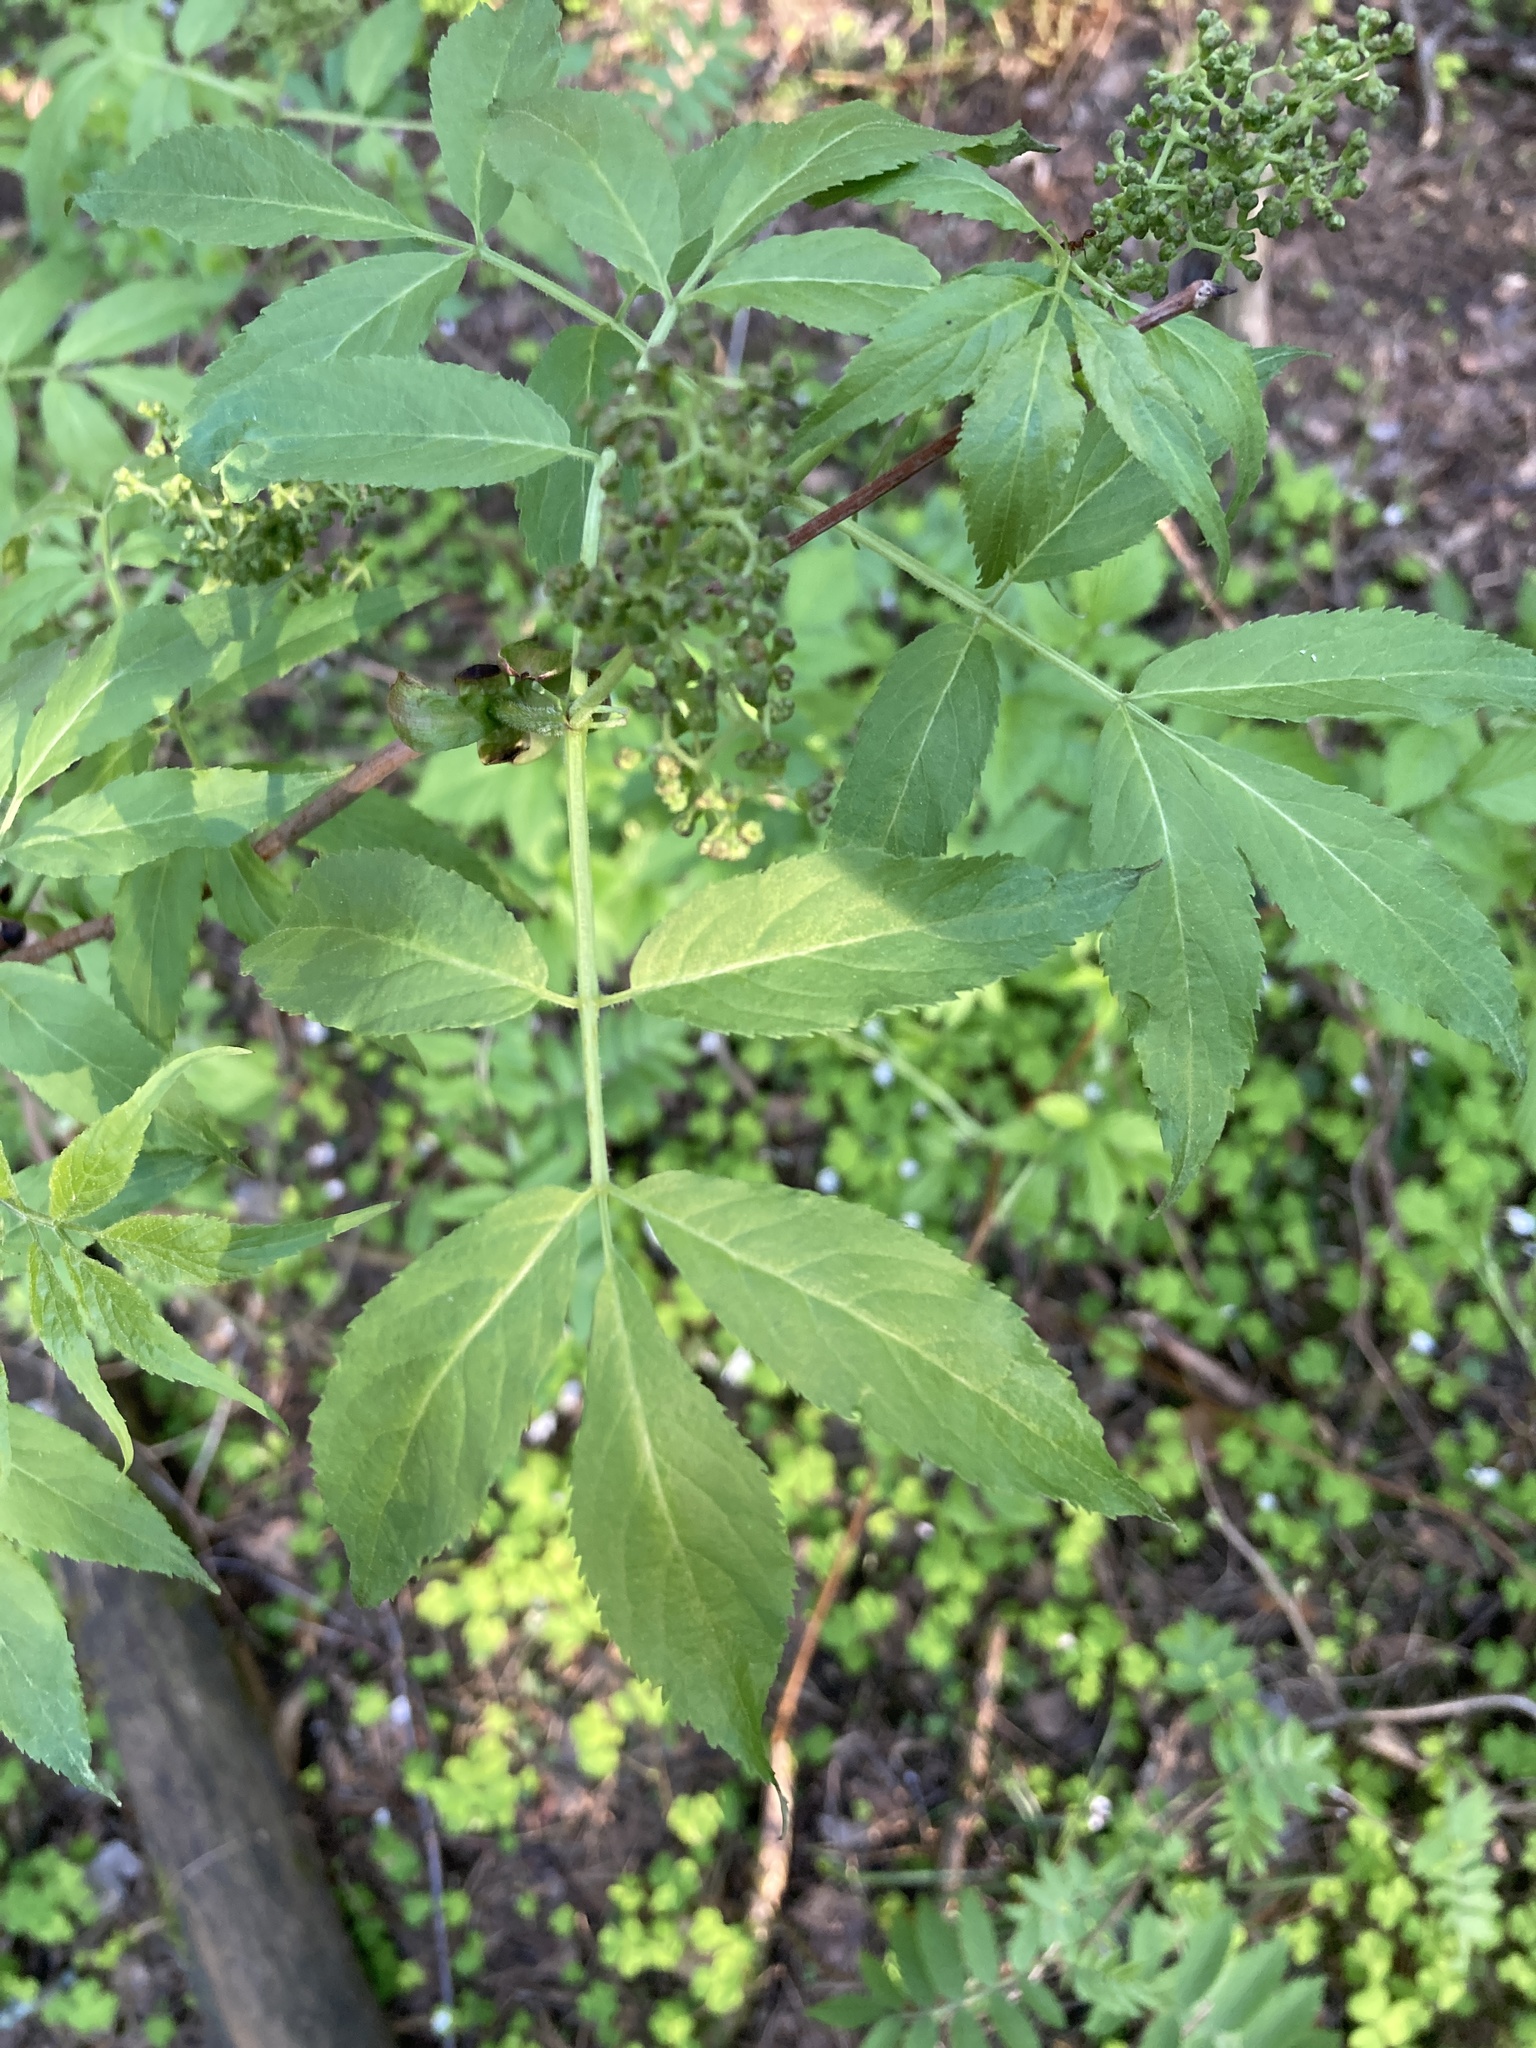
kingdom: Plantae
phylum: Tracheophyta
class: Magnoliopsida
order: Dipsacales
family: Viburnaceae
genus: Sambucus
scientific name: Sambucus racemosa
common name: Red-berried elder
